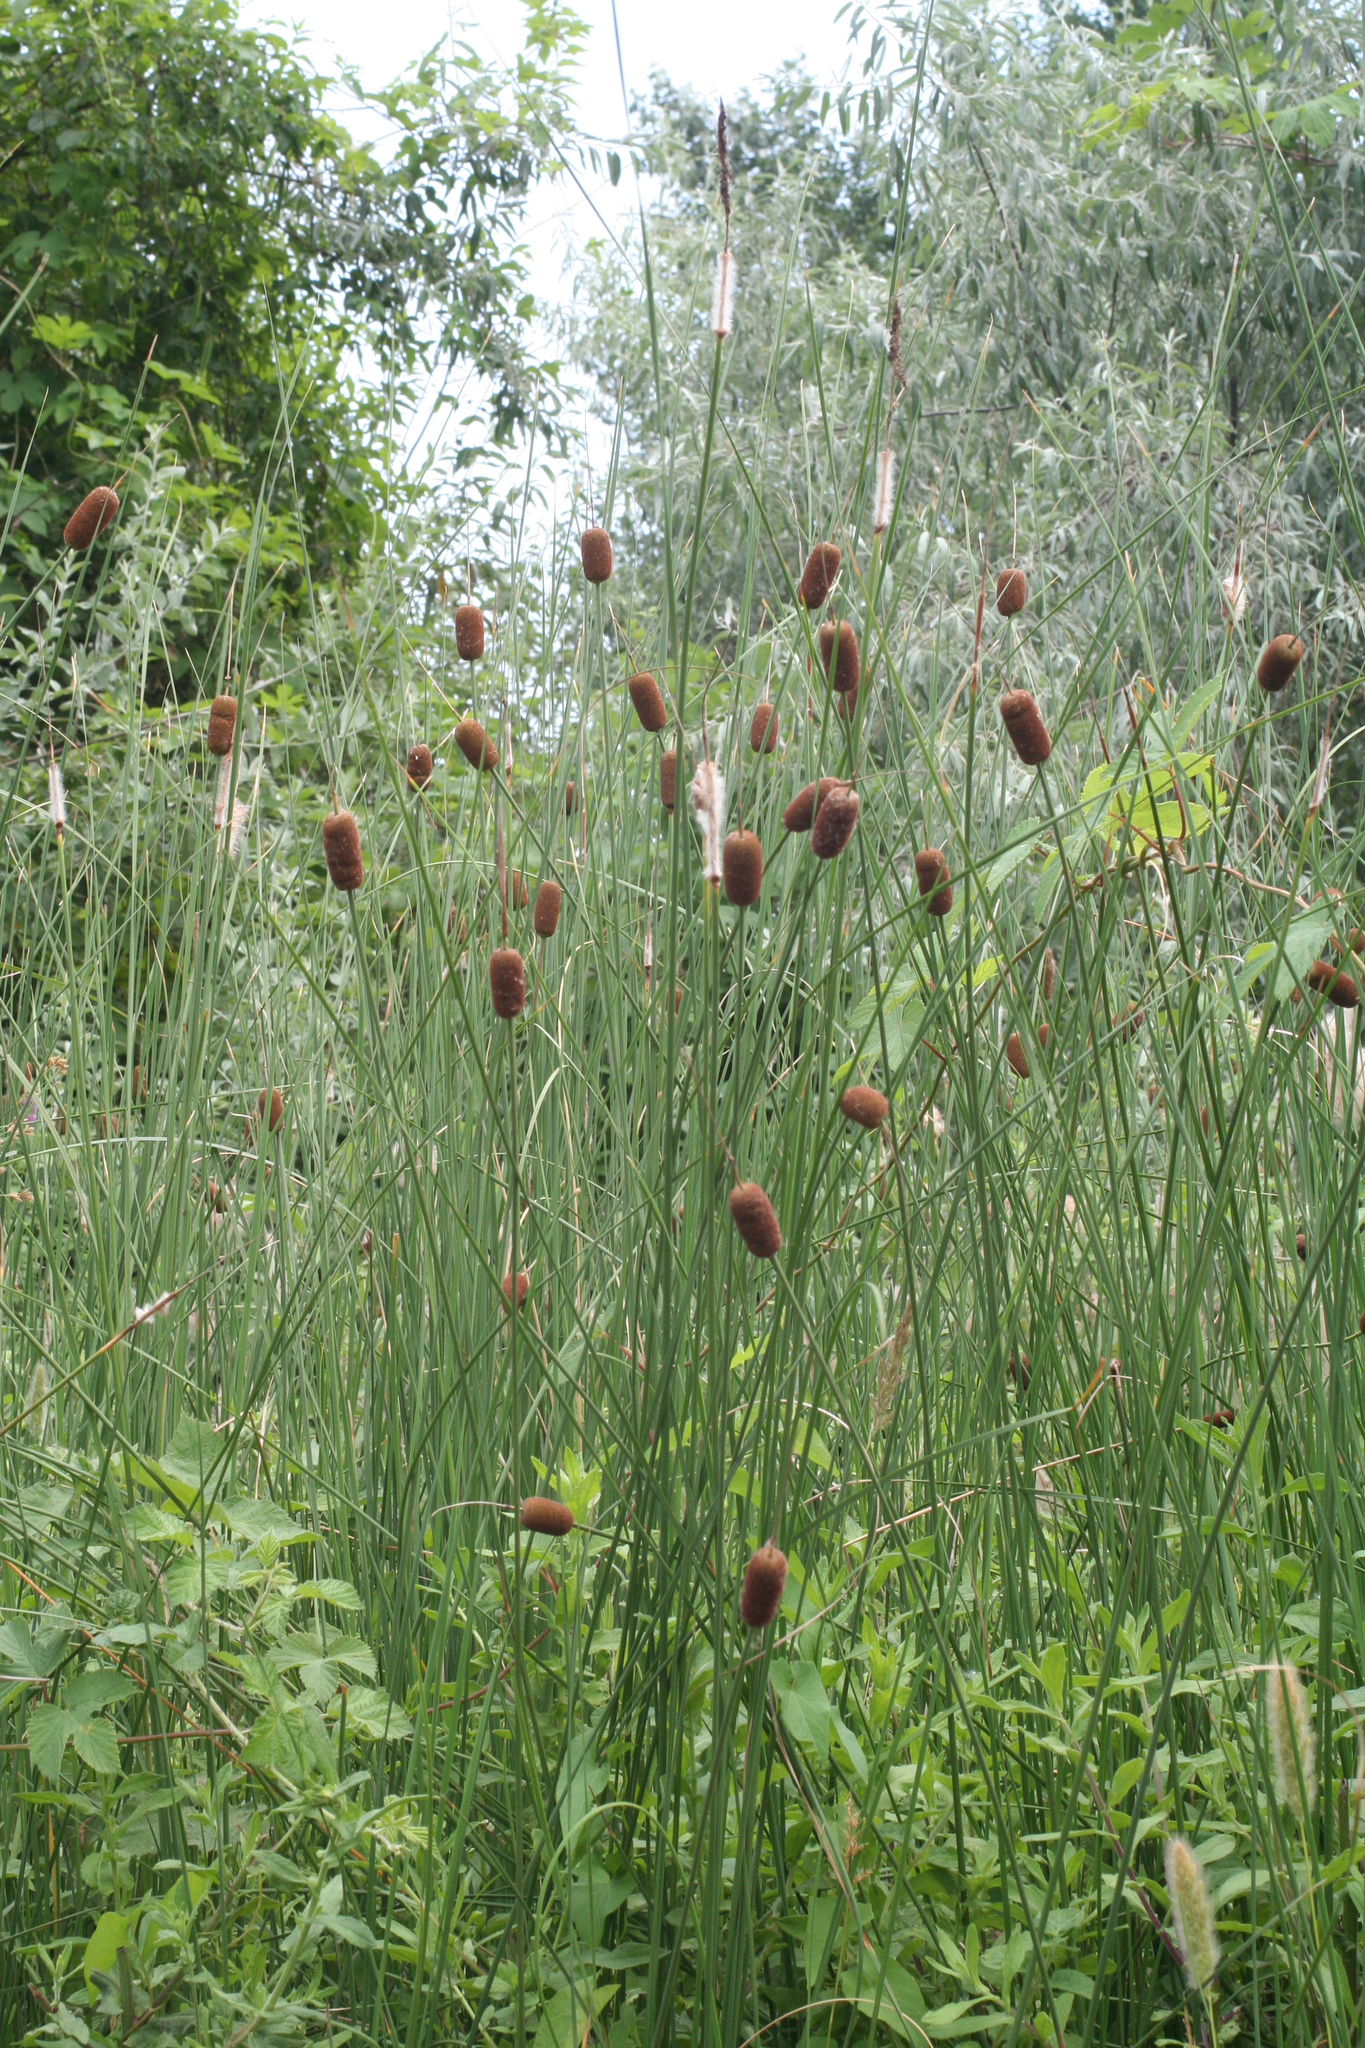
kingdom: Plantae
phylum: Tracheophyta
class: Liliopsida
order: Poales
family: Typhaceae
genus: Typha
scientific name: Typha laxmannii
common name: Laxman’s bulrush
